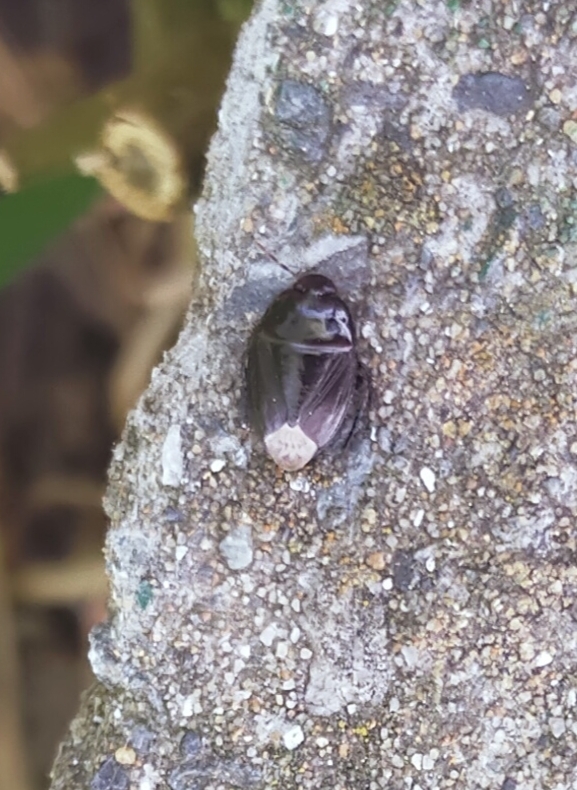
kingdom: Animalia
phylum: Arthropoda
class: Insecta
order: Hemiptera
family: Cydnidae
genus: Macroscytus
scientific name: Macroscytus brunneus
